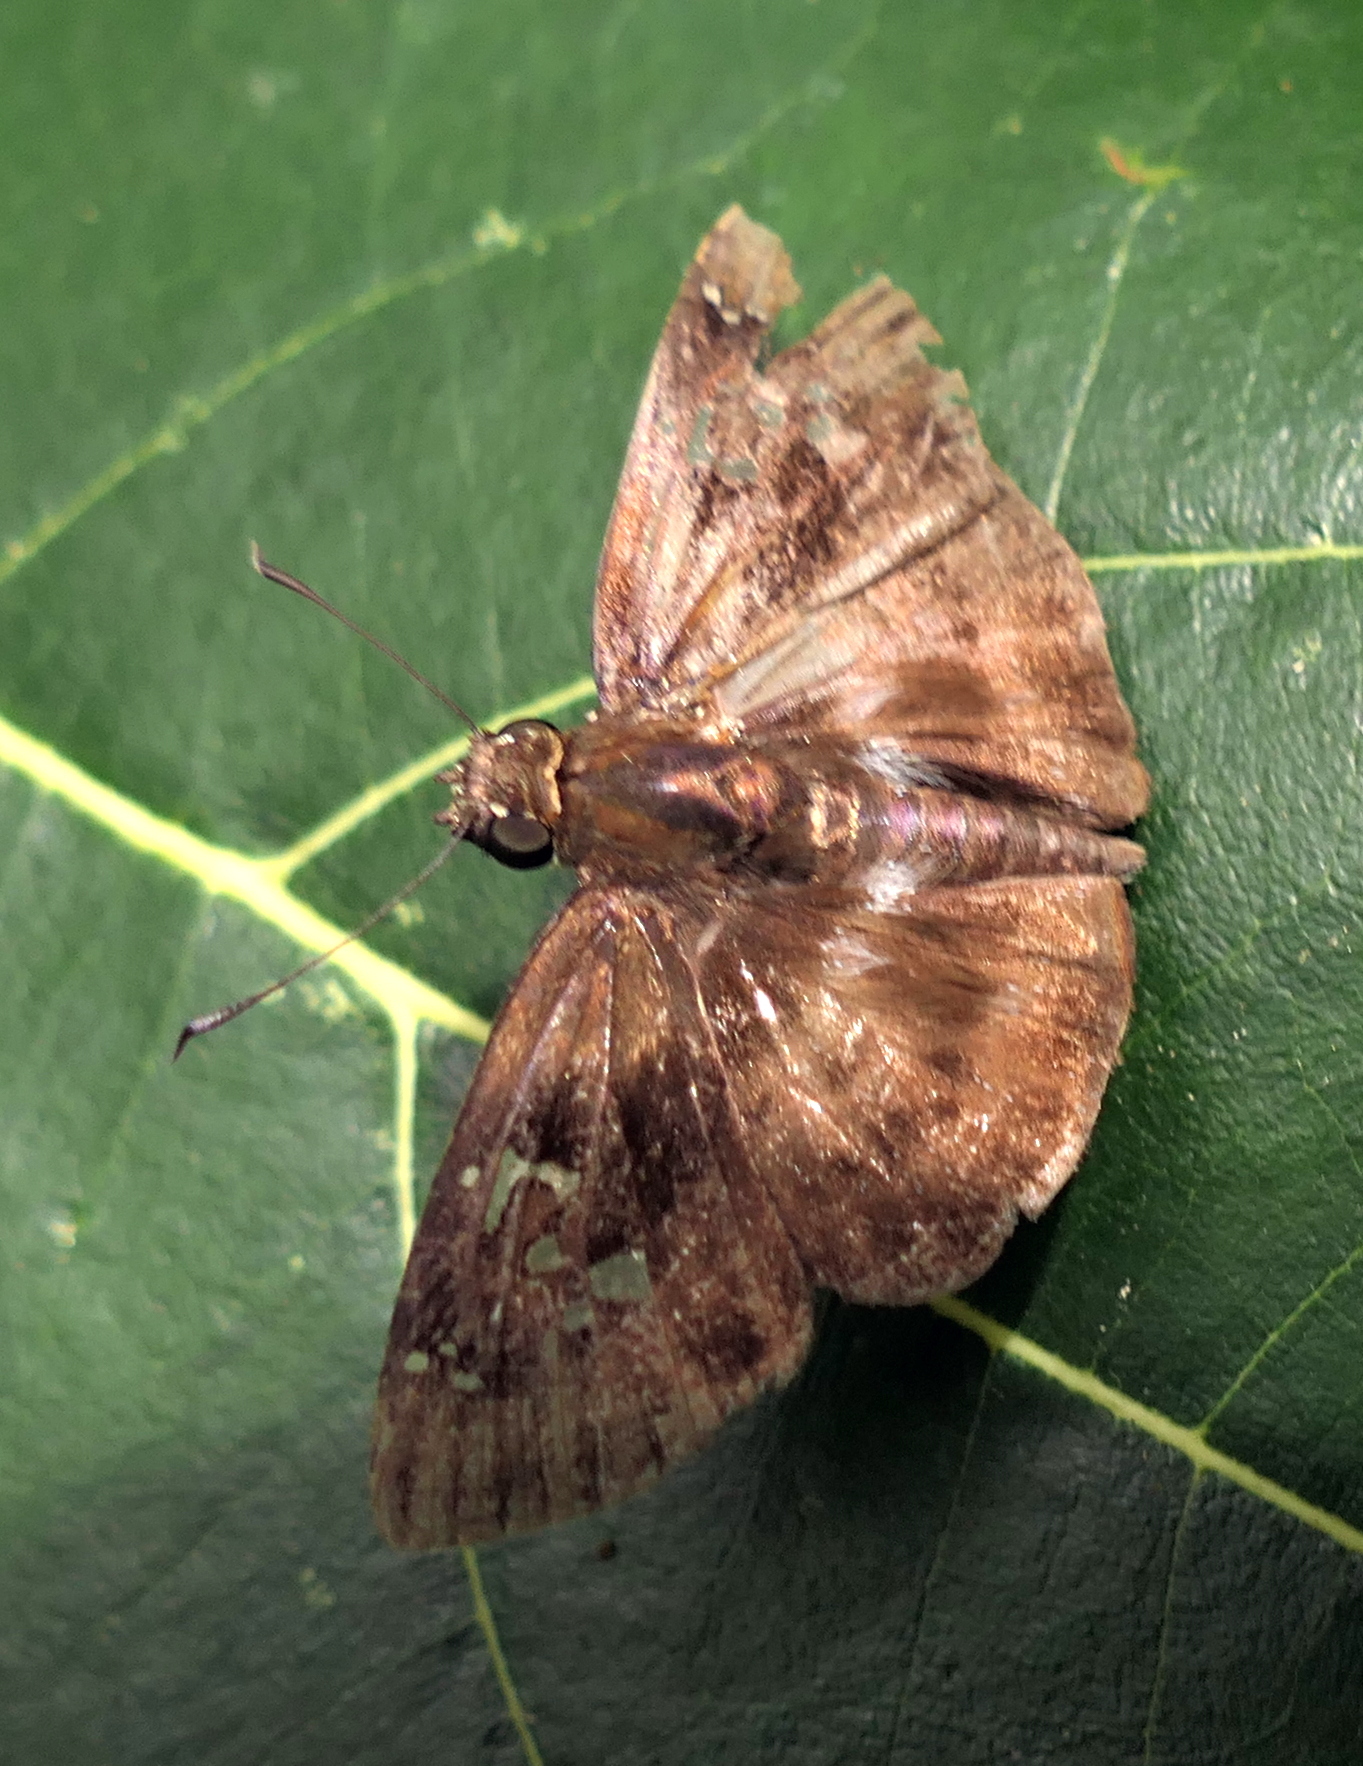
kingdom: Animalia
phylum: Arthropoda
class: Insecta
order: Lepidoptera
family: Hesperiidae
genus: Quadrus
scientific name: Quadrus cerialis
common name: Common blue-skipper
